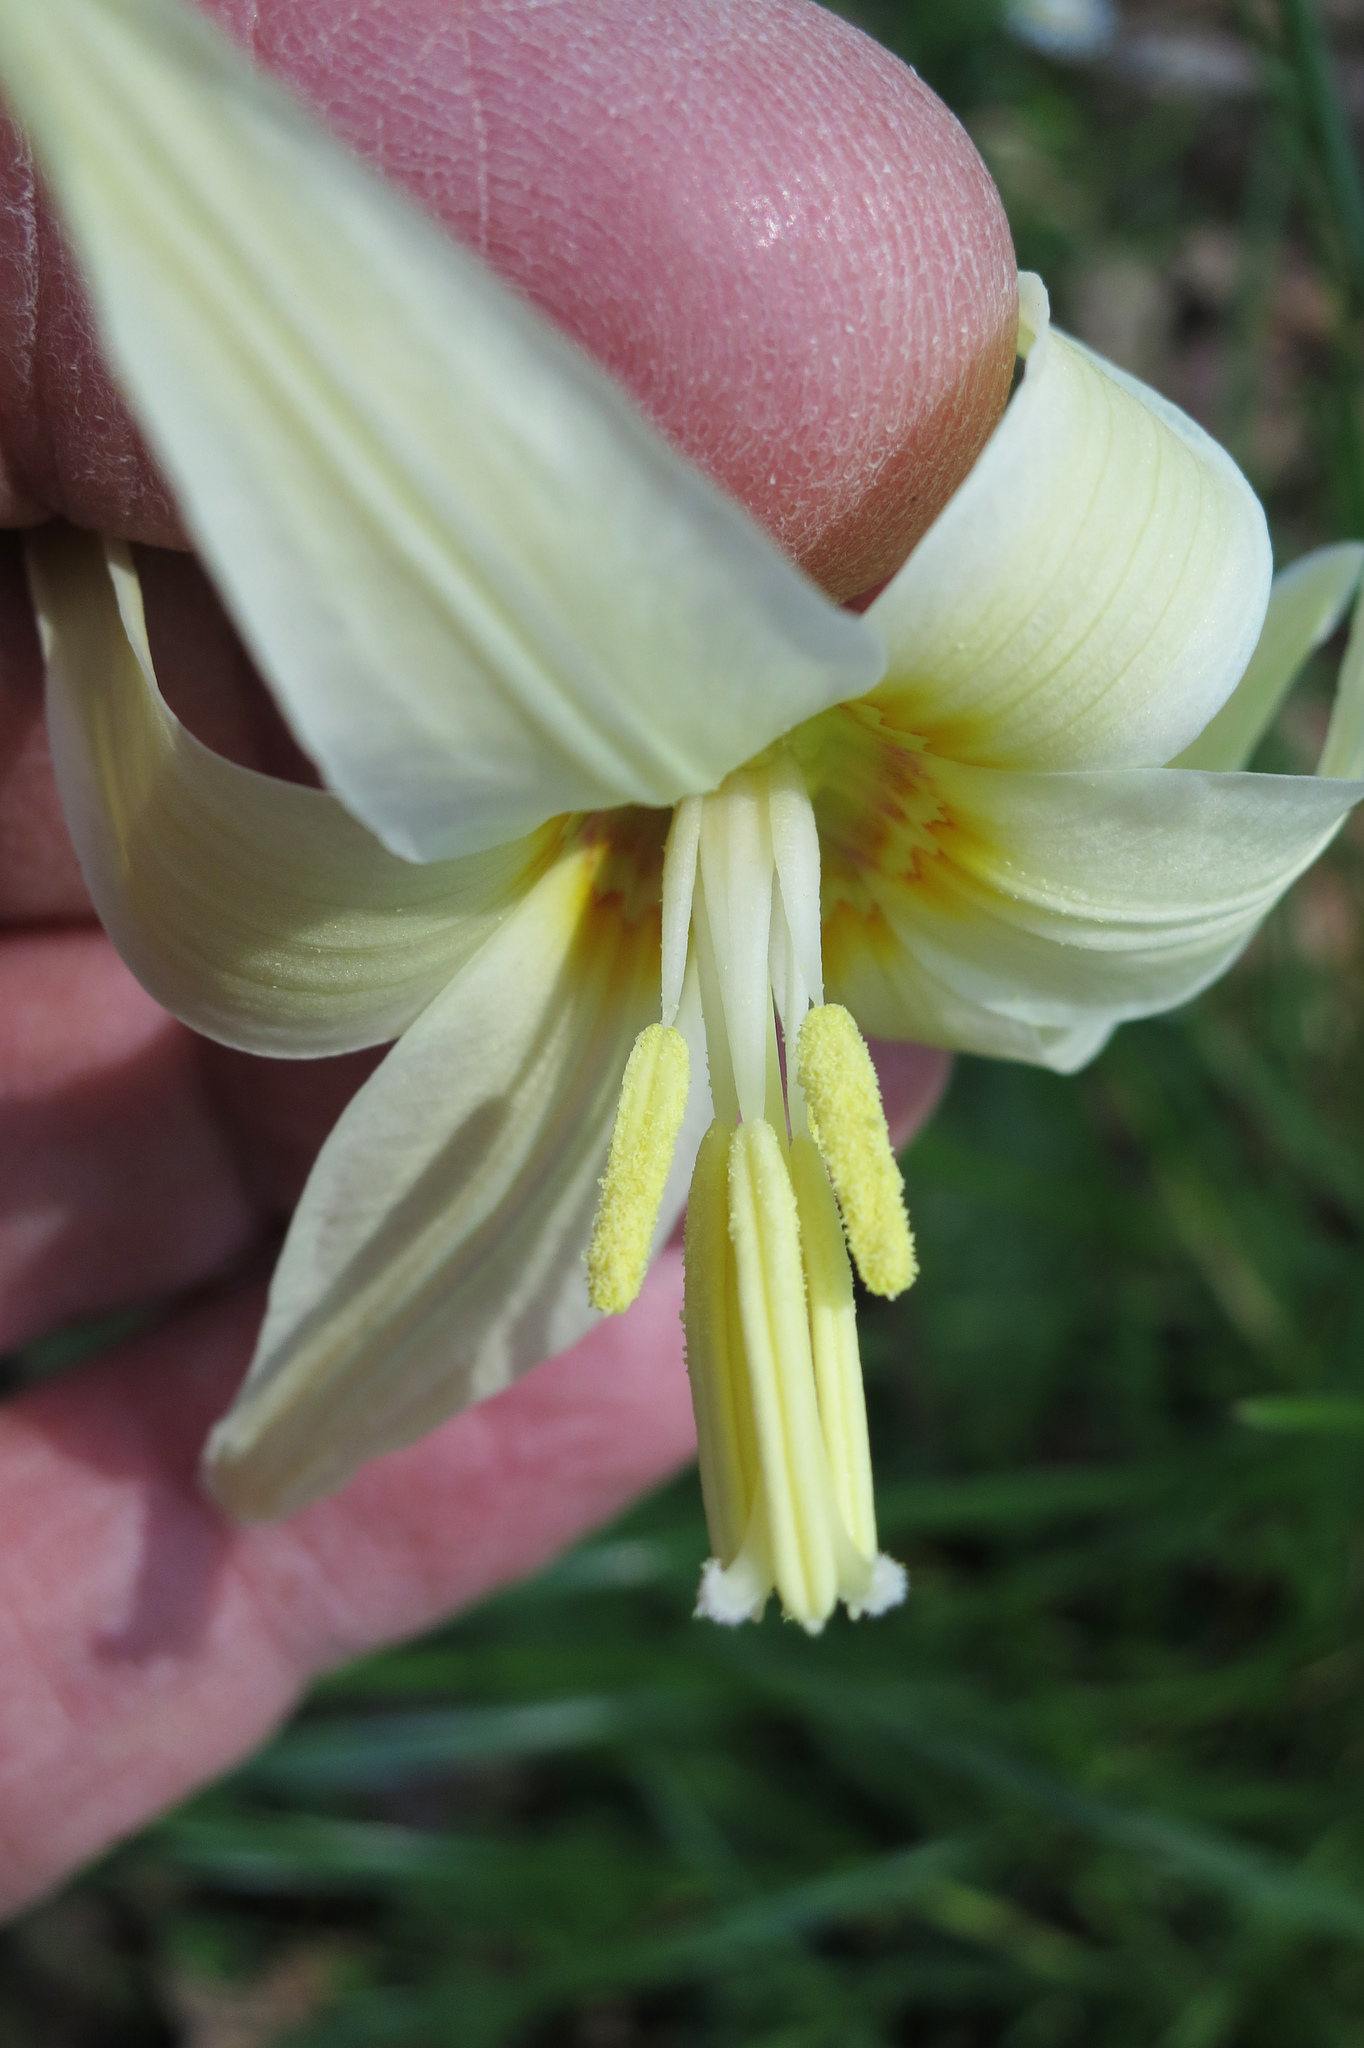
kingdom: Plantae
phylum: Tracheophyta
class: Liliopsida
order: Liliales
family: Liliaceae
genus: Erythronium
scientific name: Erythronium oregonum
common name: Giant adder's-tongue
